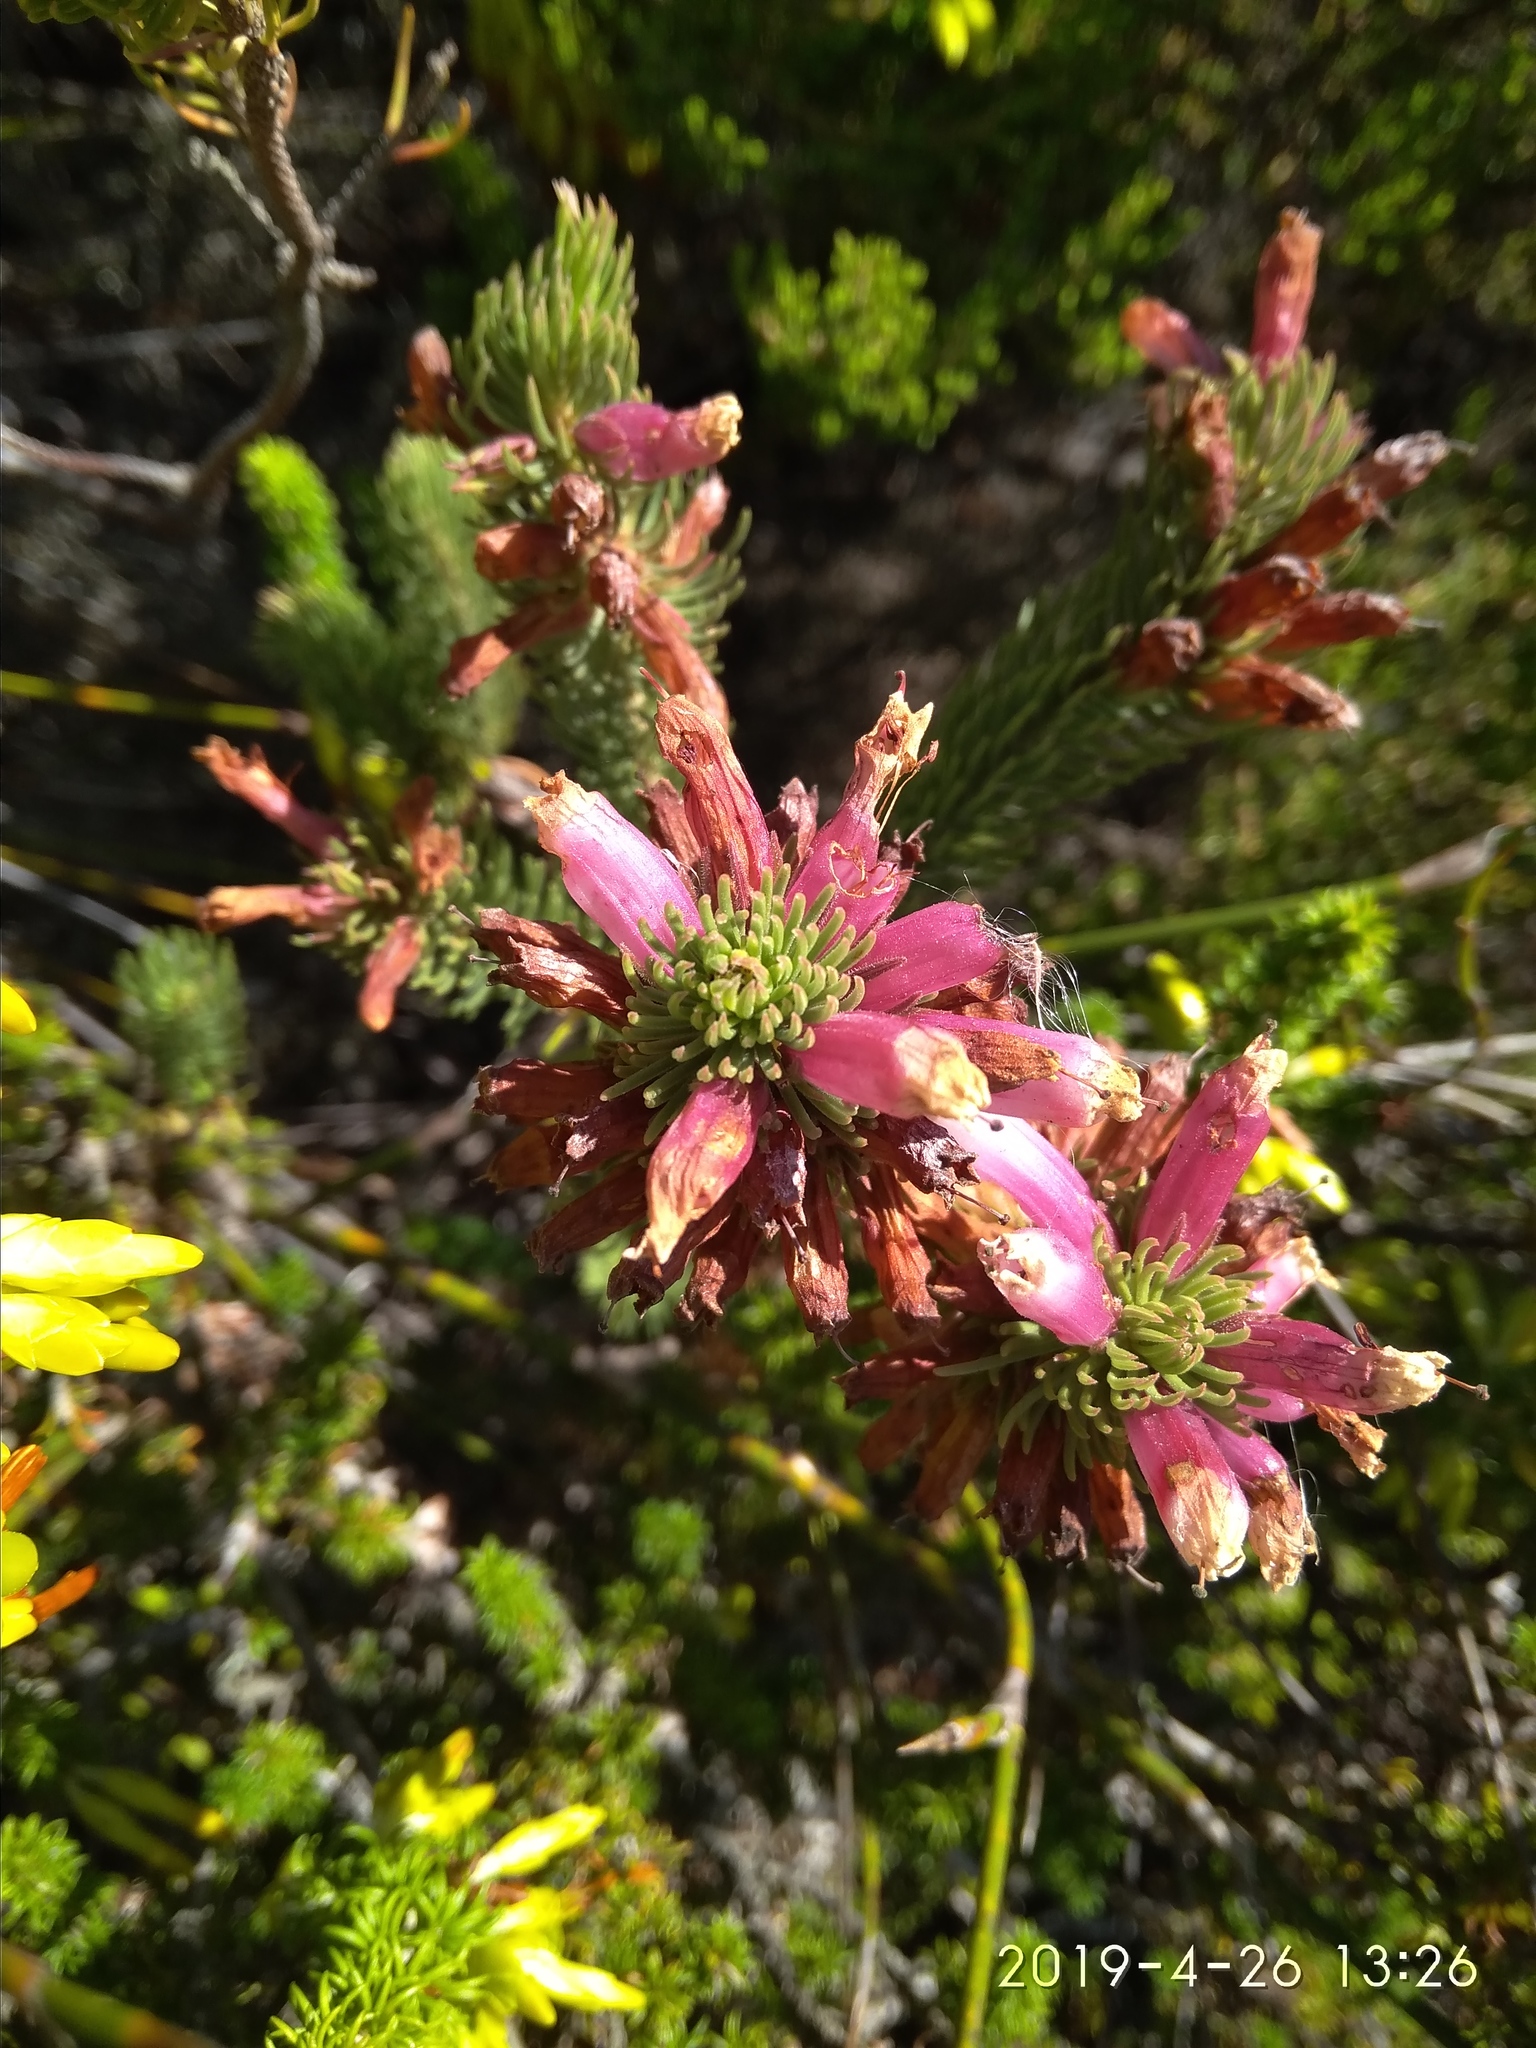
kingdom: Plantae
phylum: Tracheophyta
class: Magnoliopsida
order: Ericales
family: Ericaceae
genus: Erica
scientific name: Erica viscaria
